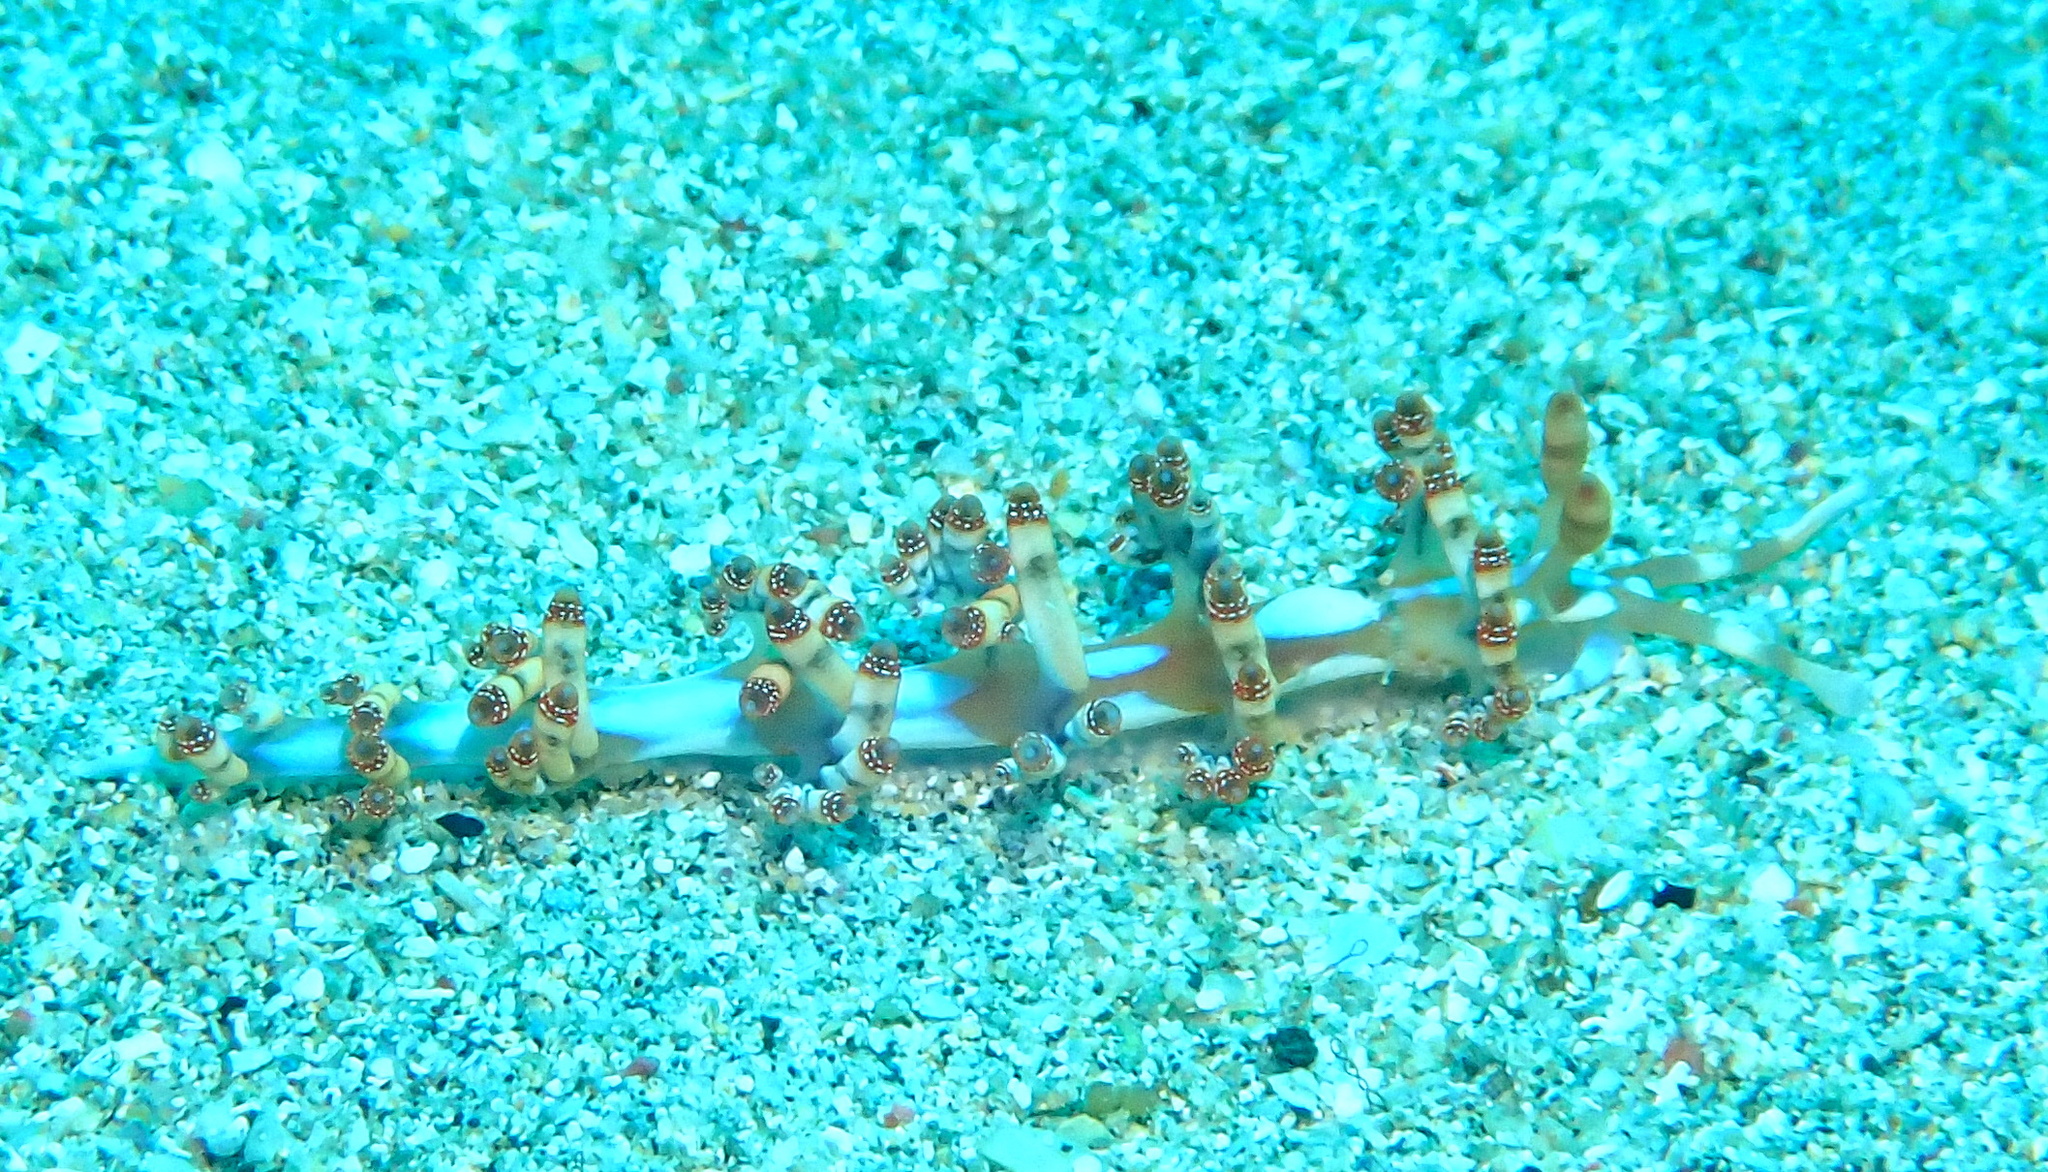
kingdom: Animalia
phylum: Mollusca
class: Gastropoda
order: Nudibranchia
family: Samlidae
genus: Samla
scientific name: Samla bilas
